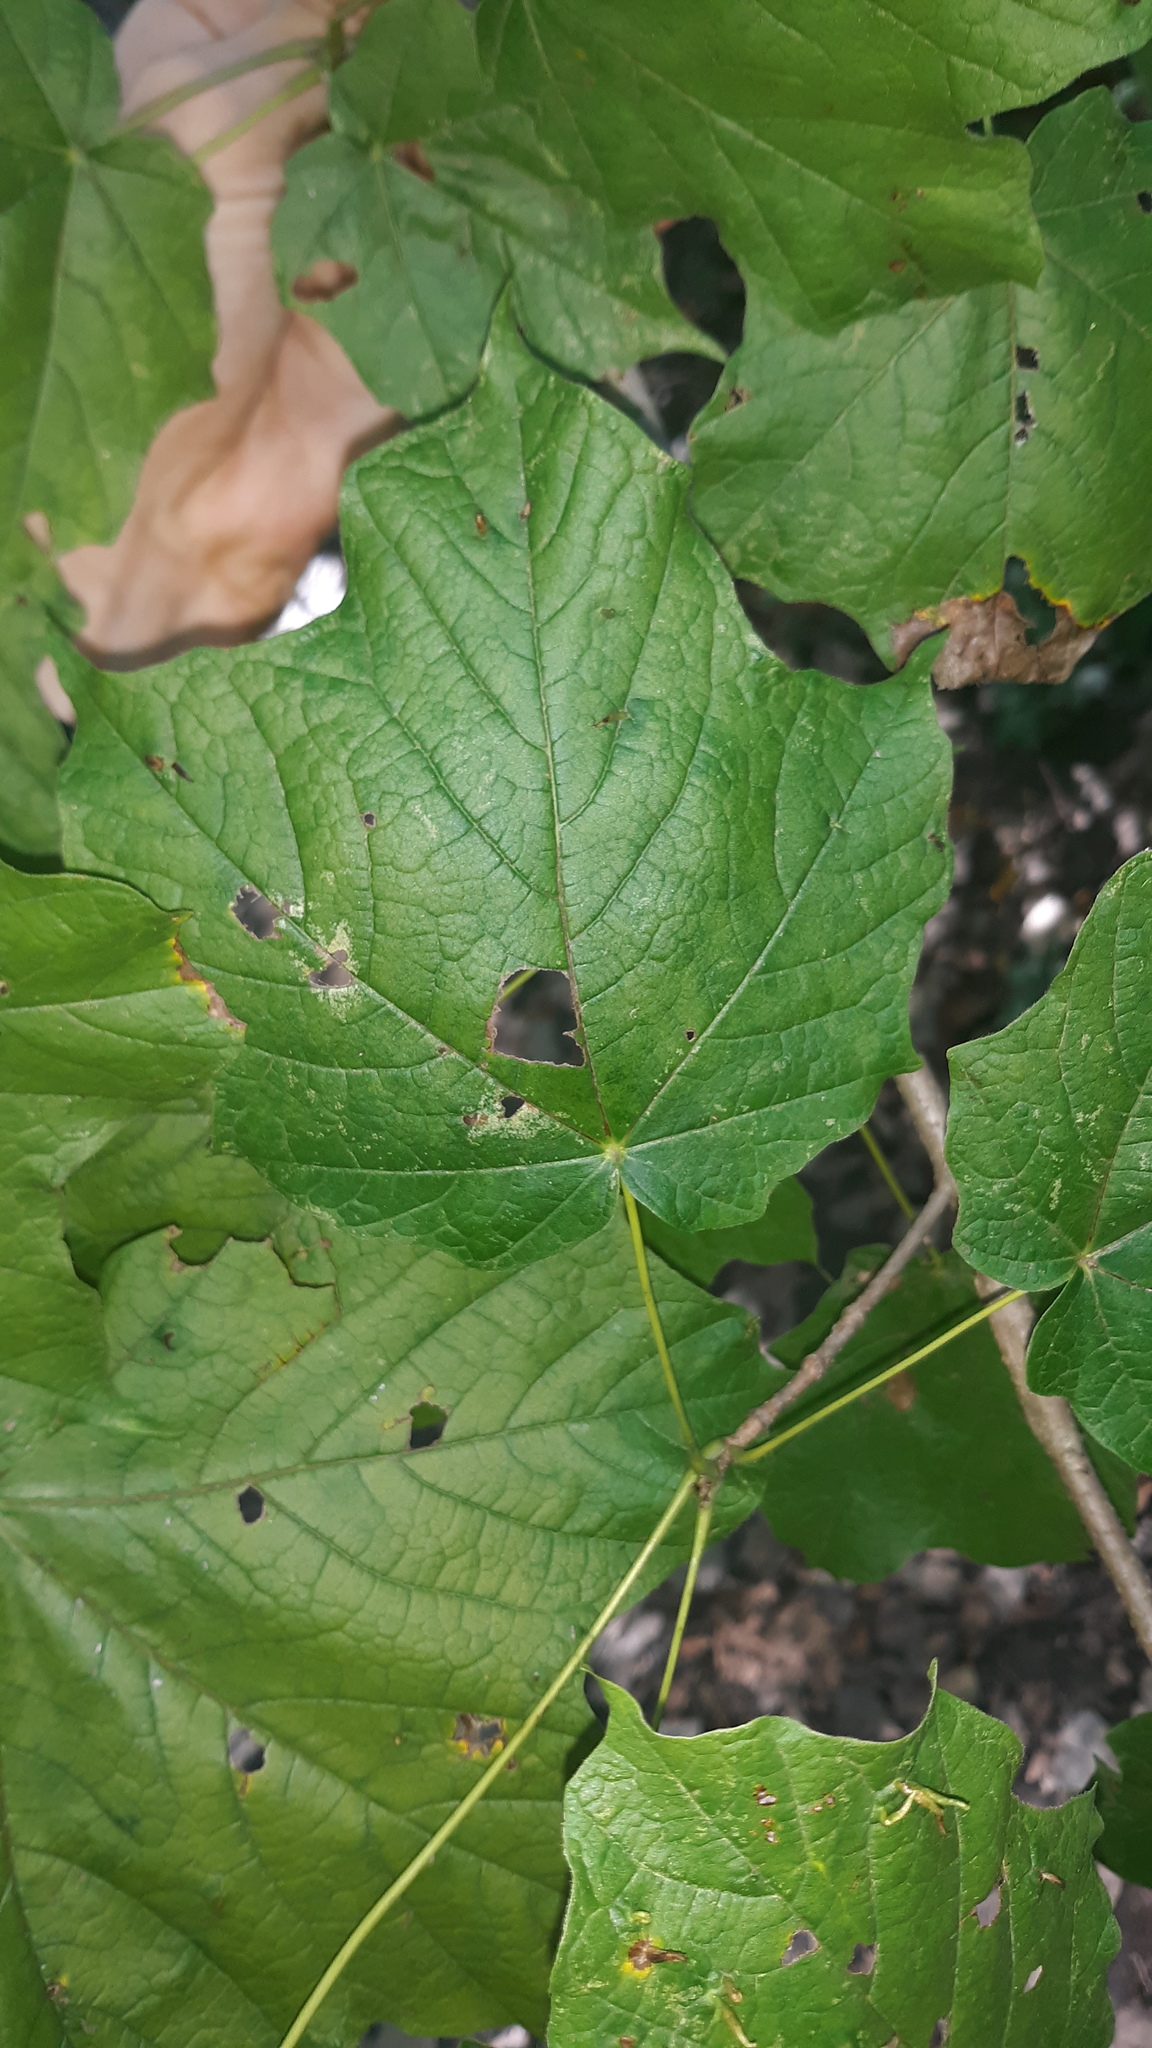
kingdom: Plantae
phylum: Tracheophyta
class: Magnoliopsida
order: Sapindales
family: Sapindaceae
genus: Acer
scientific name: Acer nigrum
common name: Black maple
